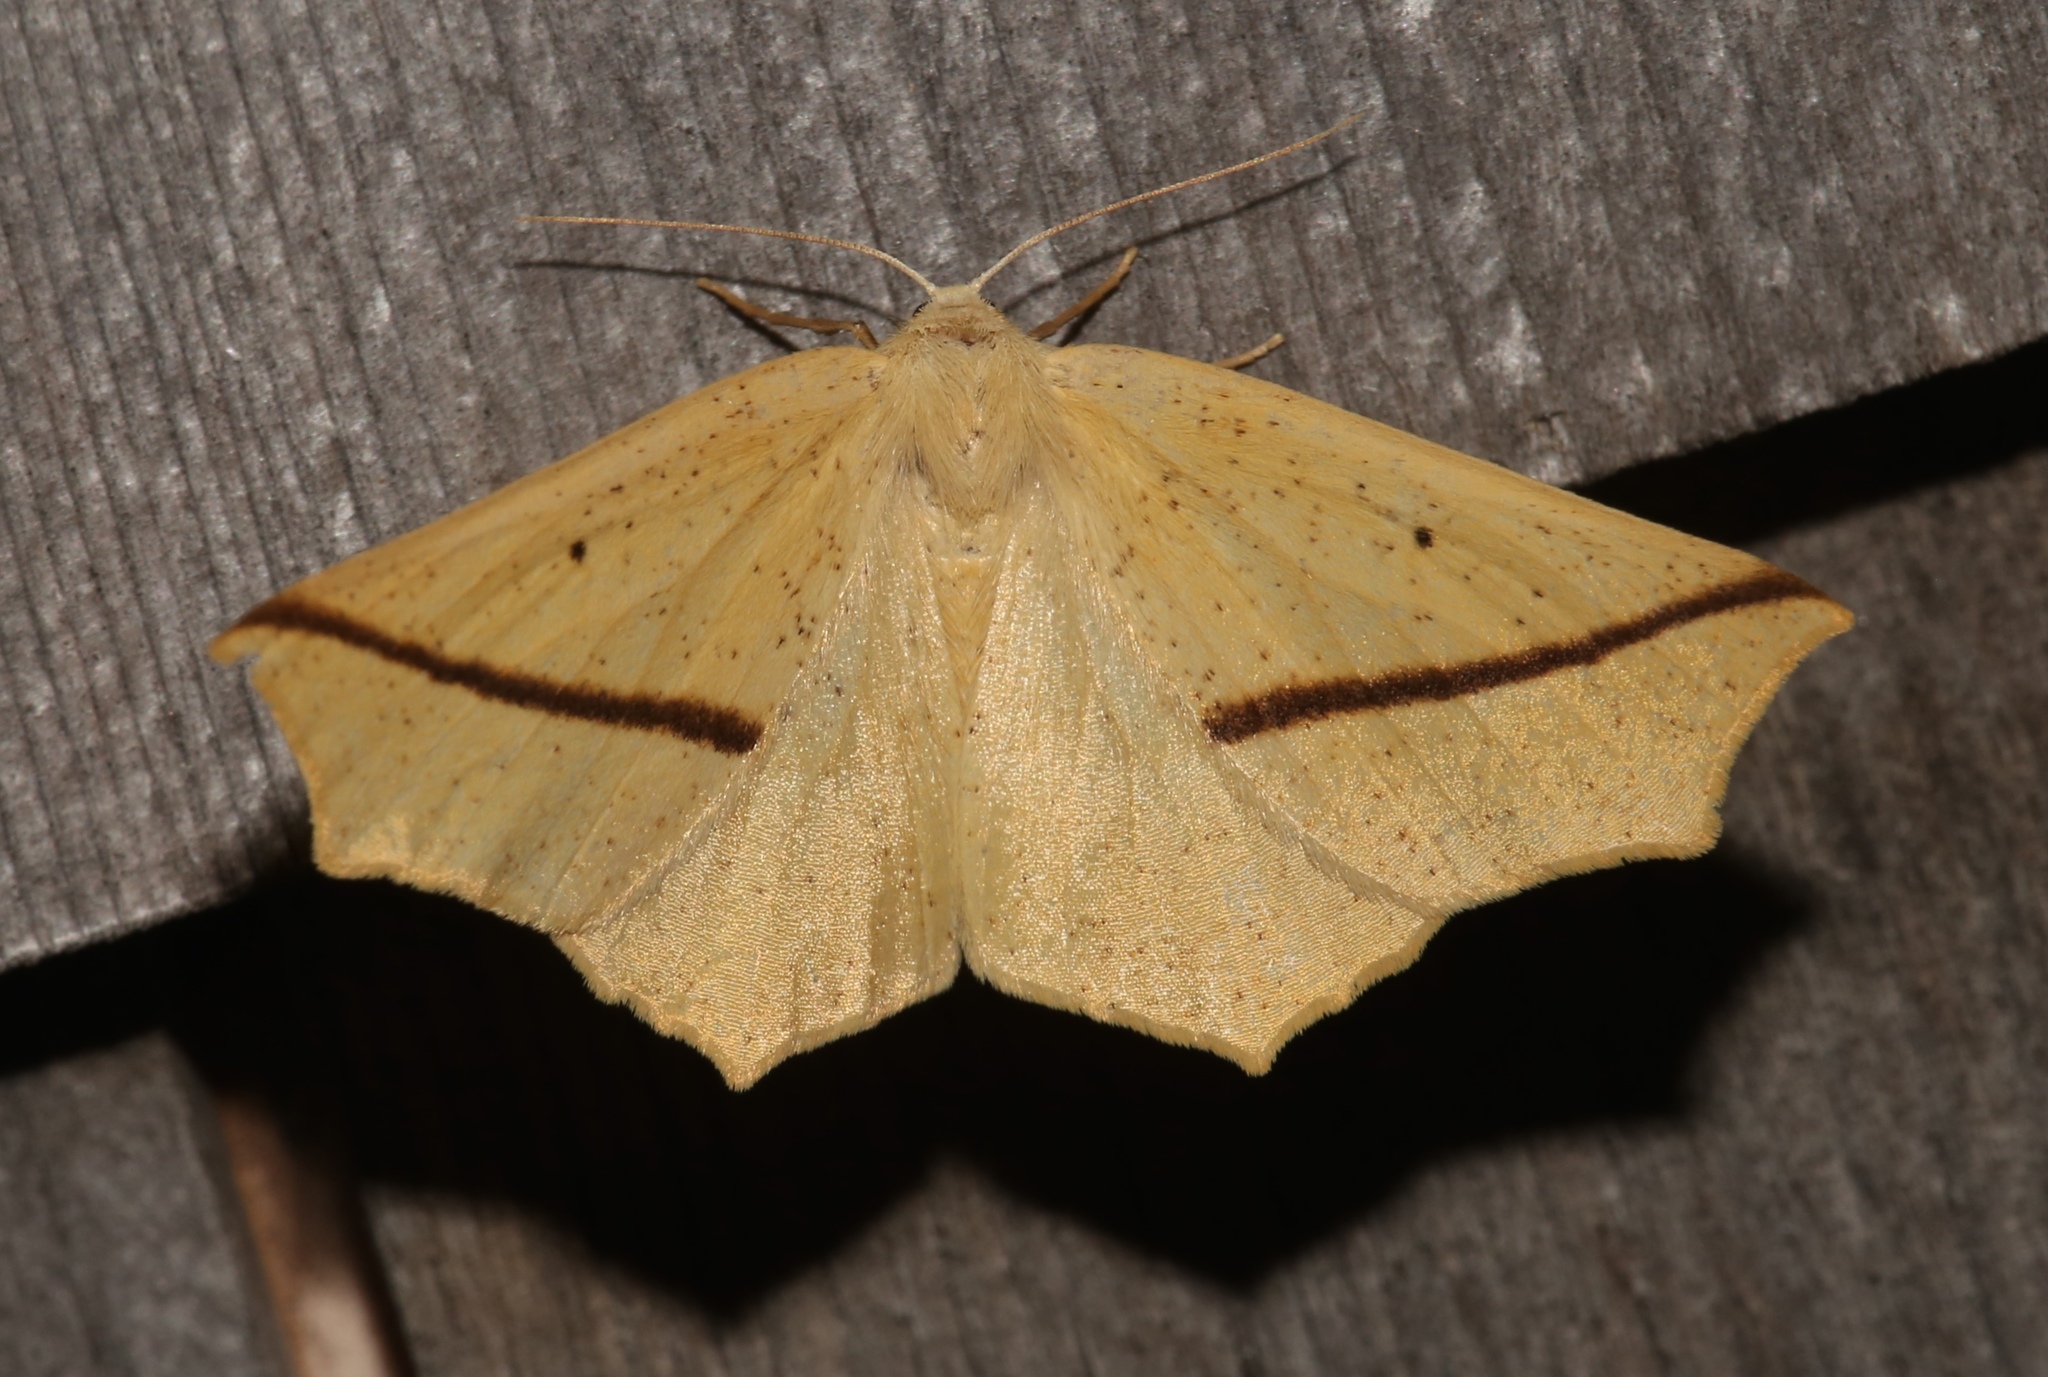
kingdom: Animalia
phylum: Arthropoda
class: Insecta
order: Lepidoptera
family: Geometridae
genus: Tetracis
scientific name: Tetracis crocallata
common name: Yellow slant-line
